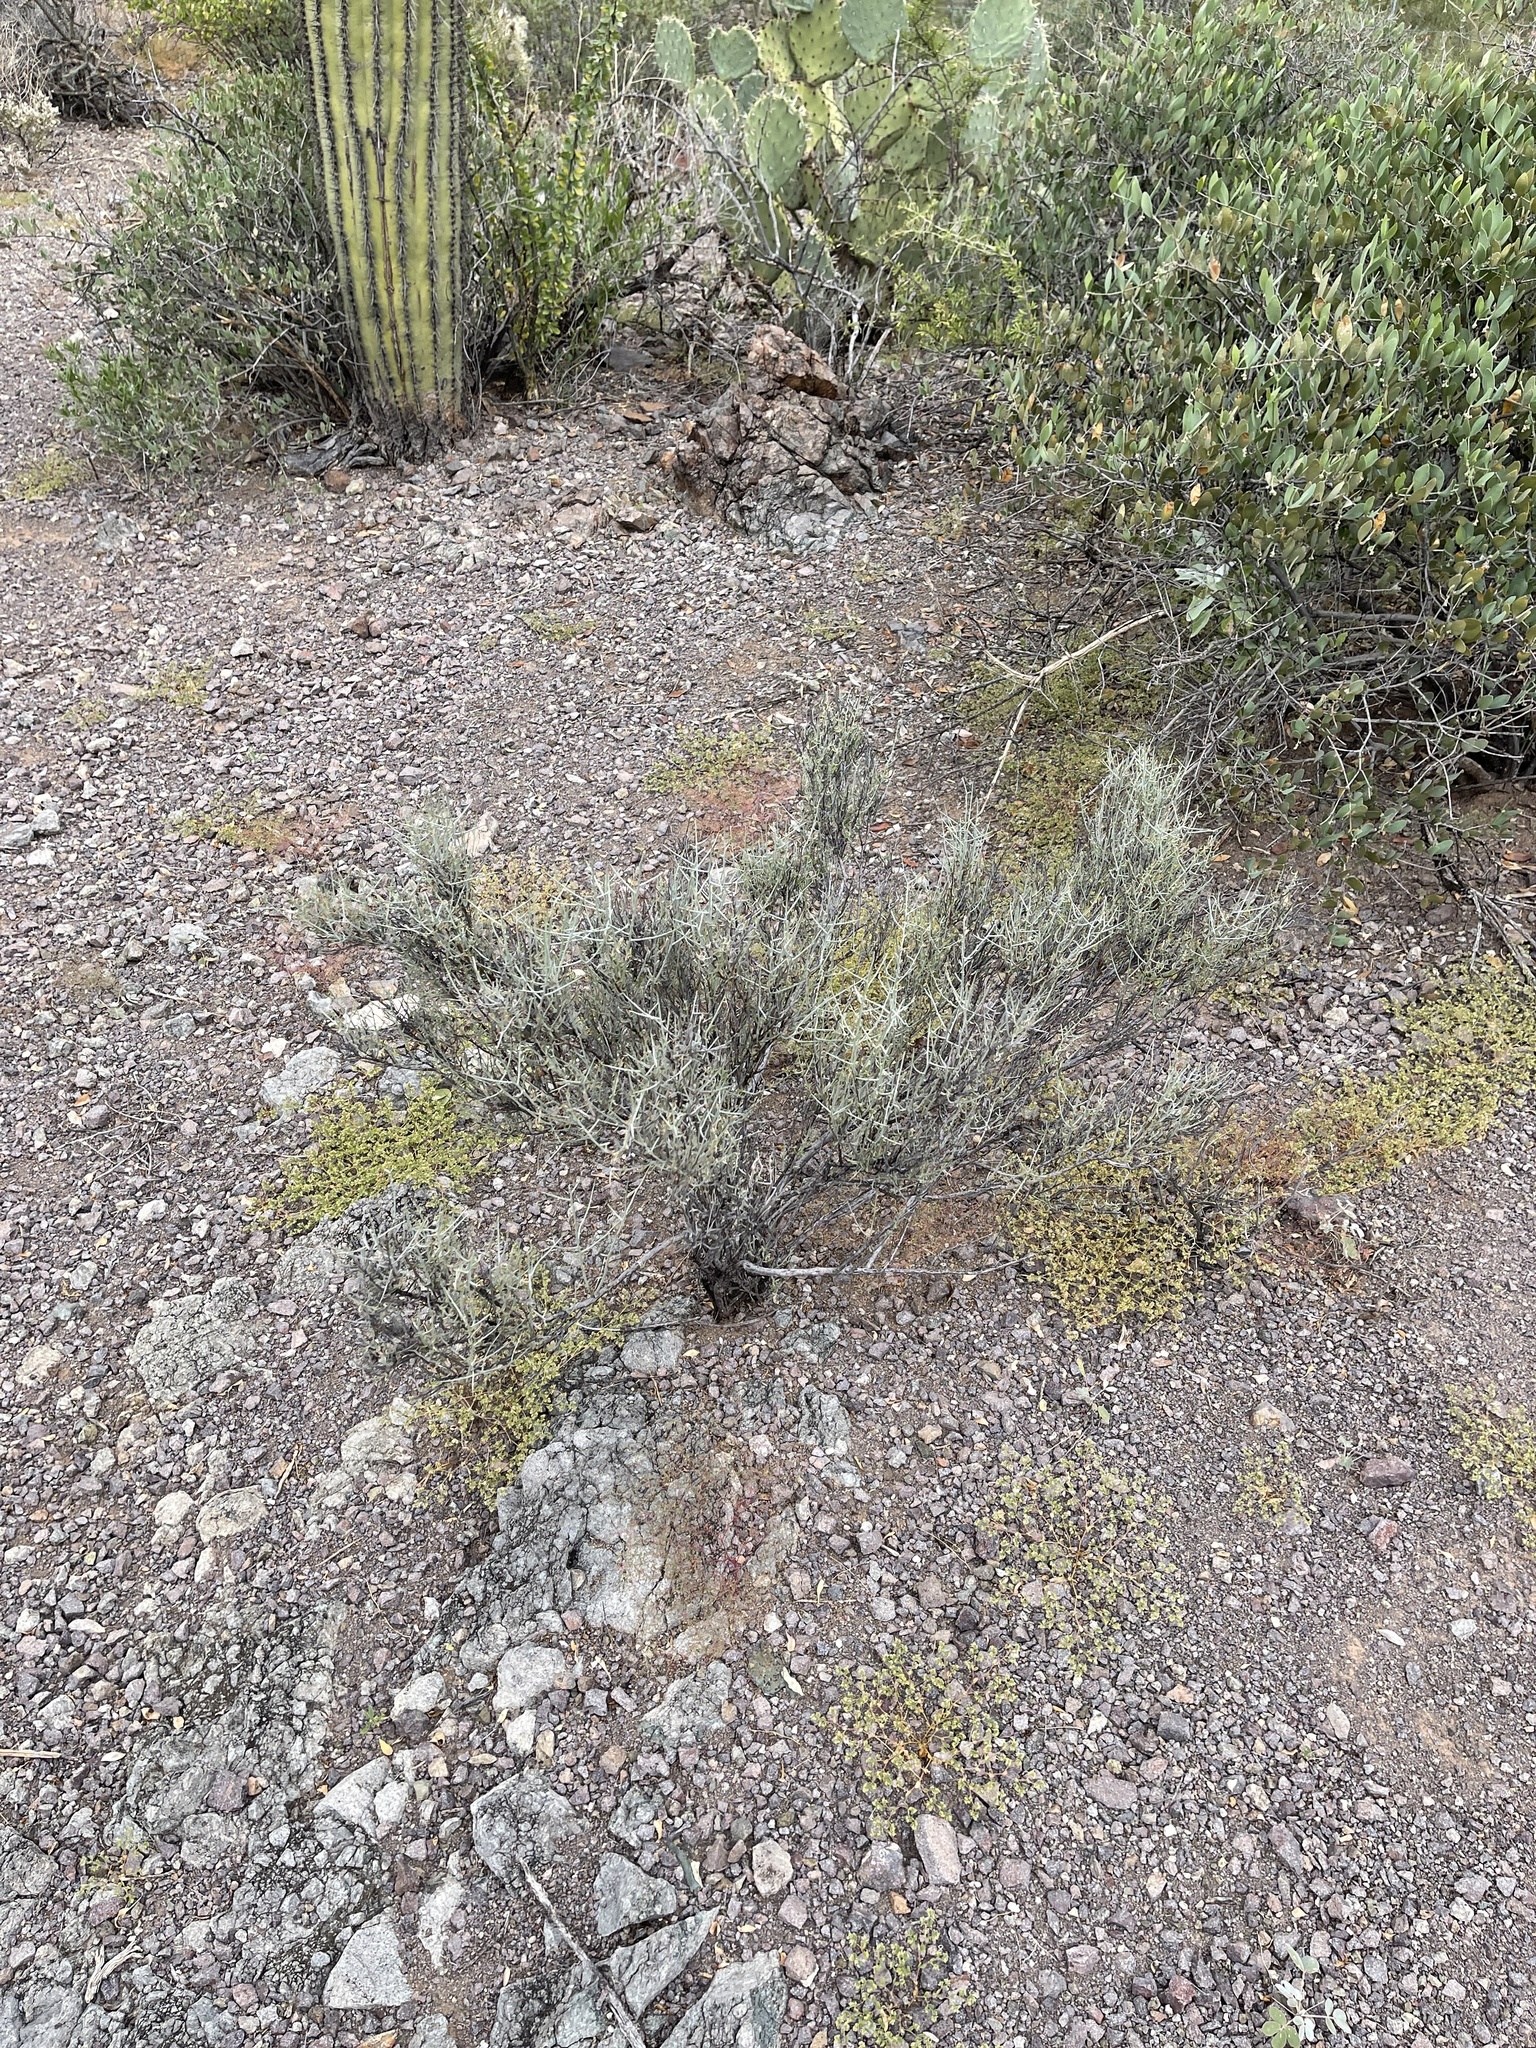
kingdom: Plantae
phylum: Tracheophyta
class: Magnoliopsida
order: Rosales
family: Rhamnaceae
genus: Sarcomphalus
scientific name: Sarcomphalus obtusifolius
